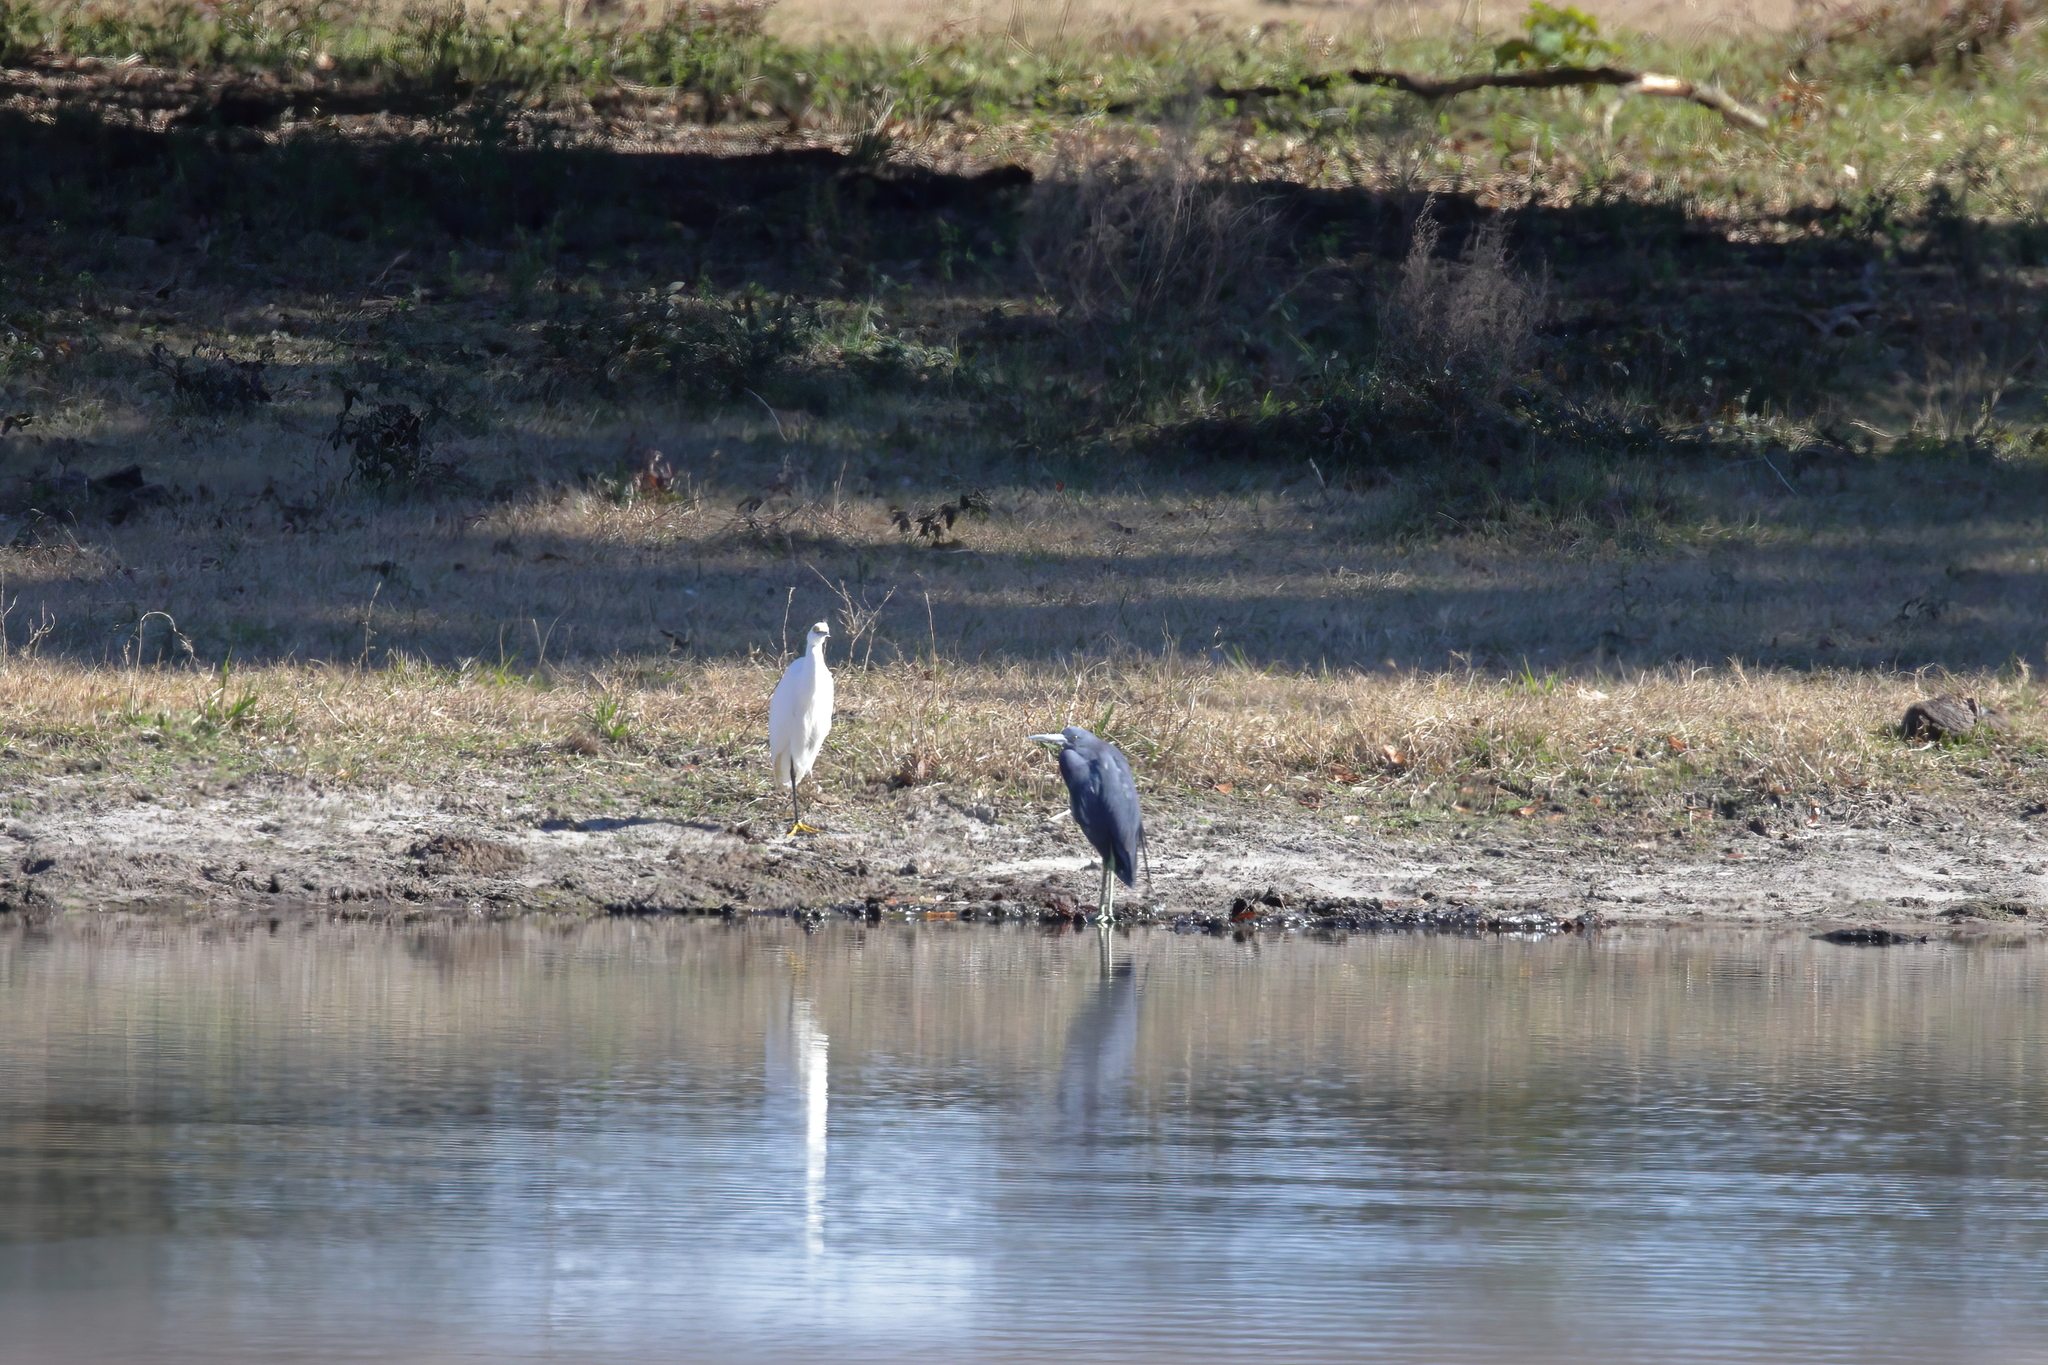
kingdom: Animalia
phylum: Chordata
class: Aves
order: Pelecaniformes
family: Ardeidae
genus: Egretta
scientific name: Egretta caerulea
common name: Little blue heron
